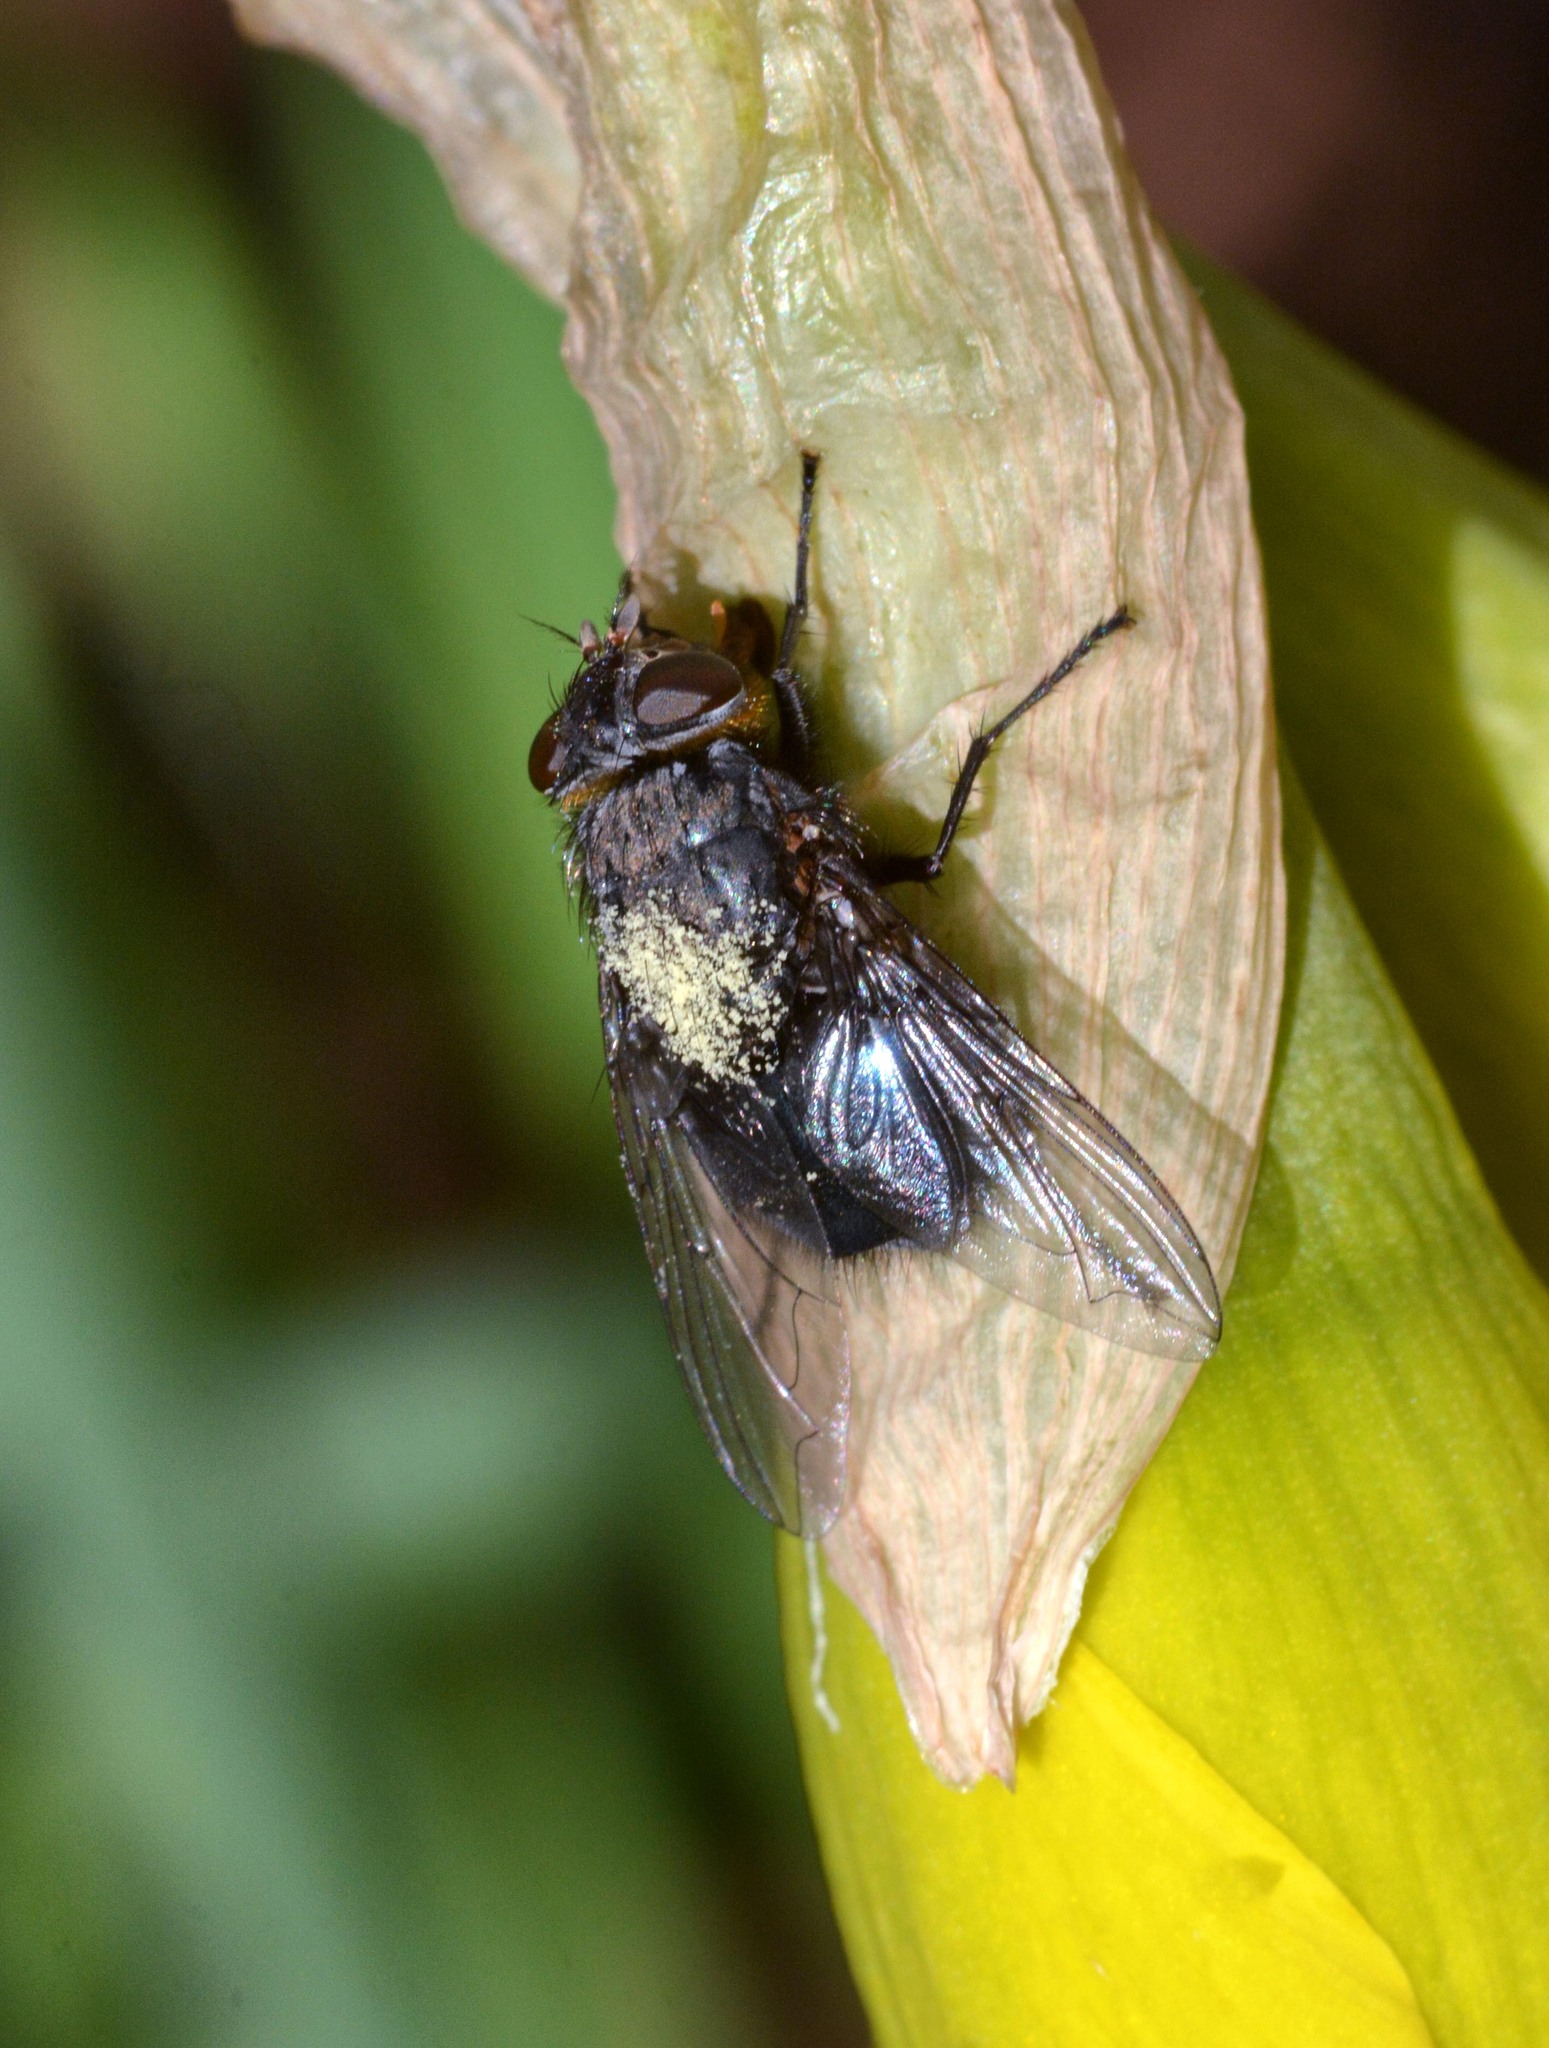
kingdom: Animalia
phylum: Arthropoda
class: Insecta
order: Diptera
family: Calliphoridae
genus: Calliphora
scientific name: Calliphora vomitoria
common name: Blue bottle fly
